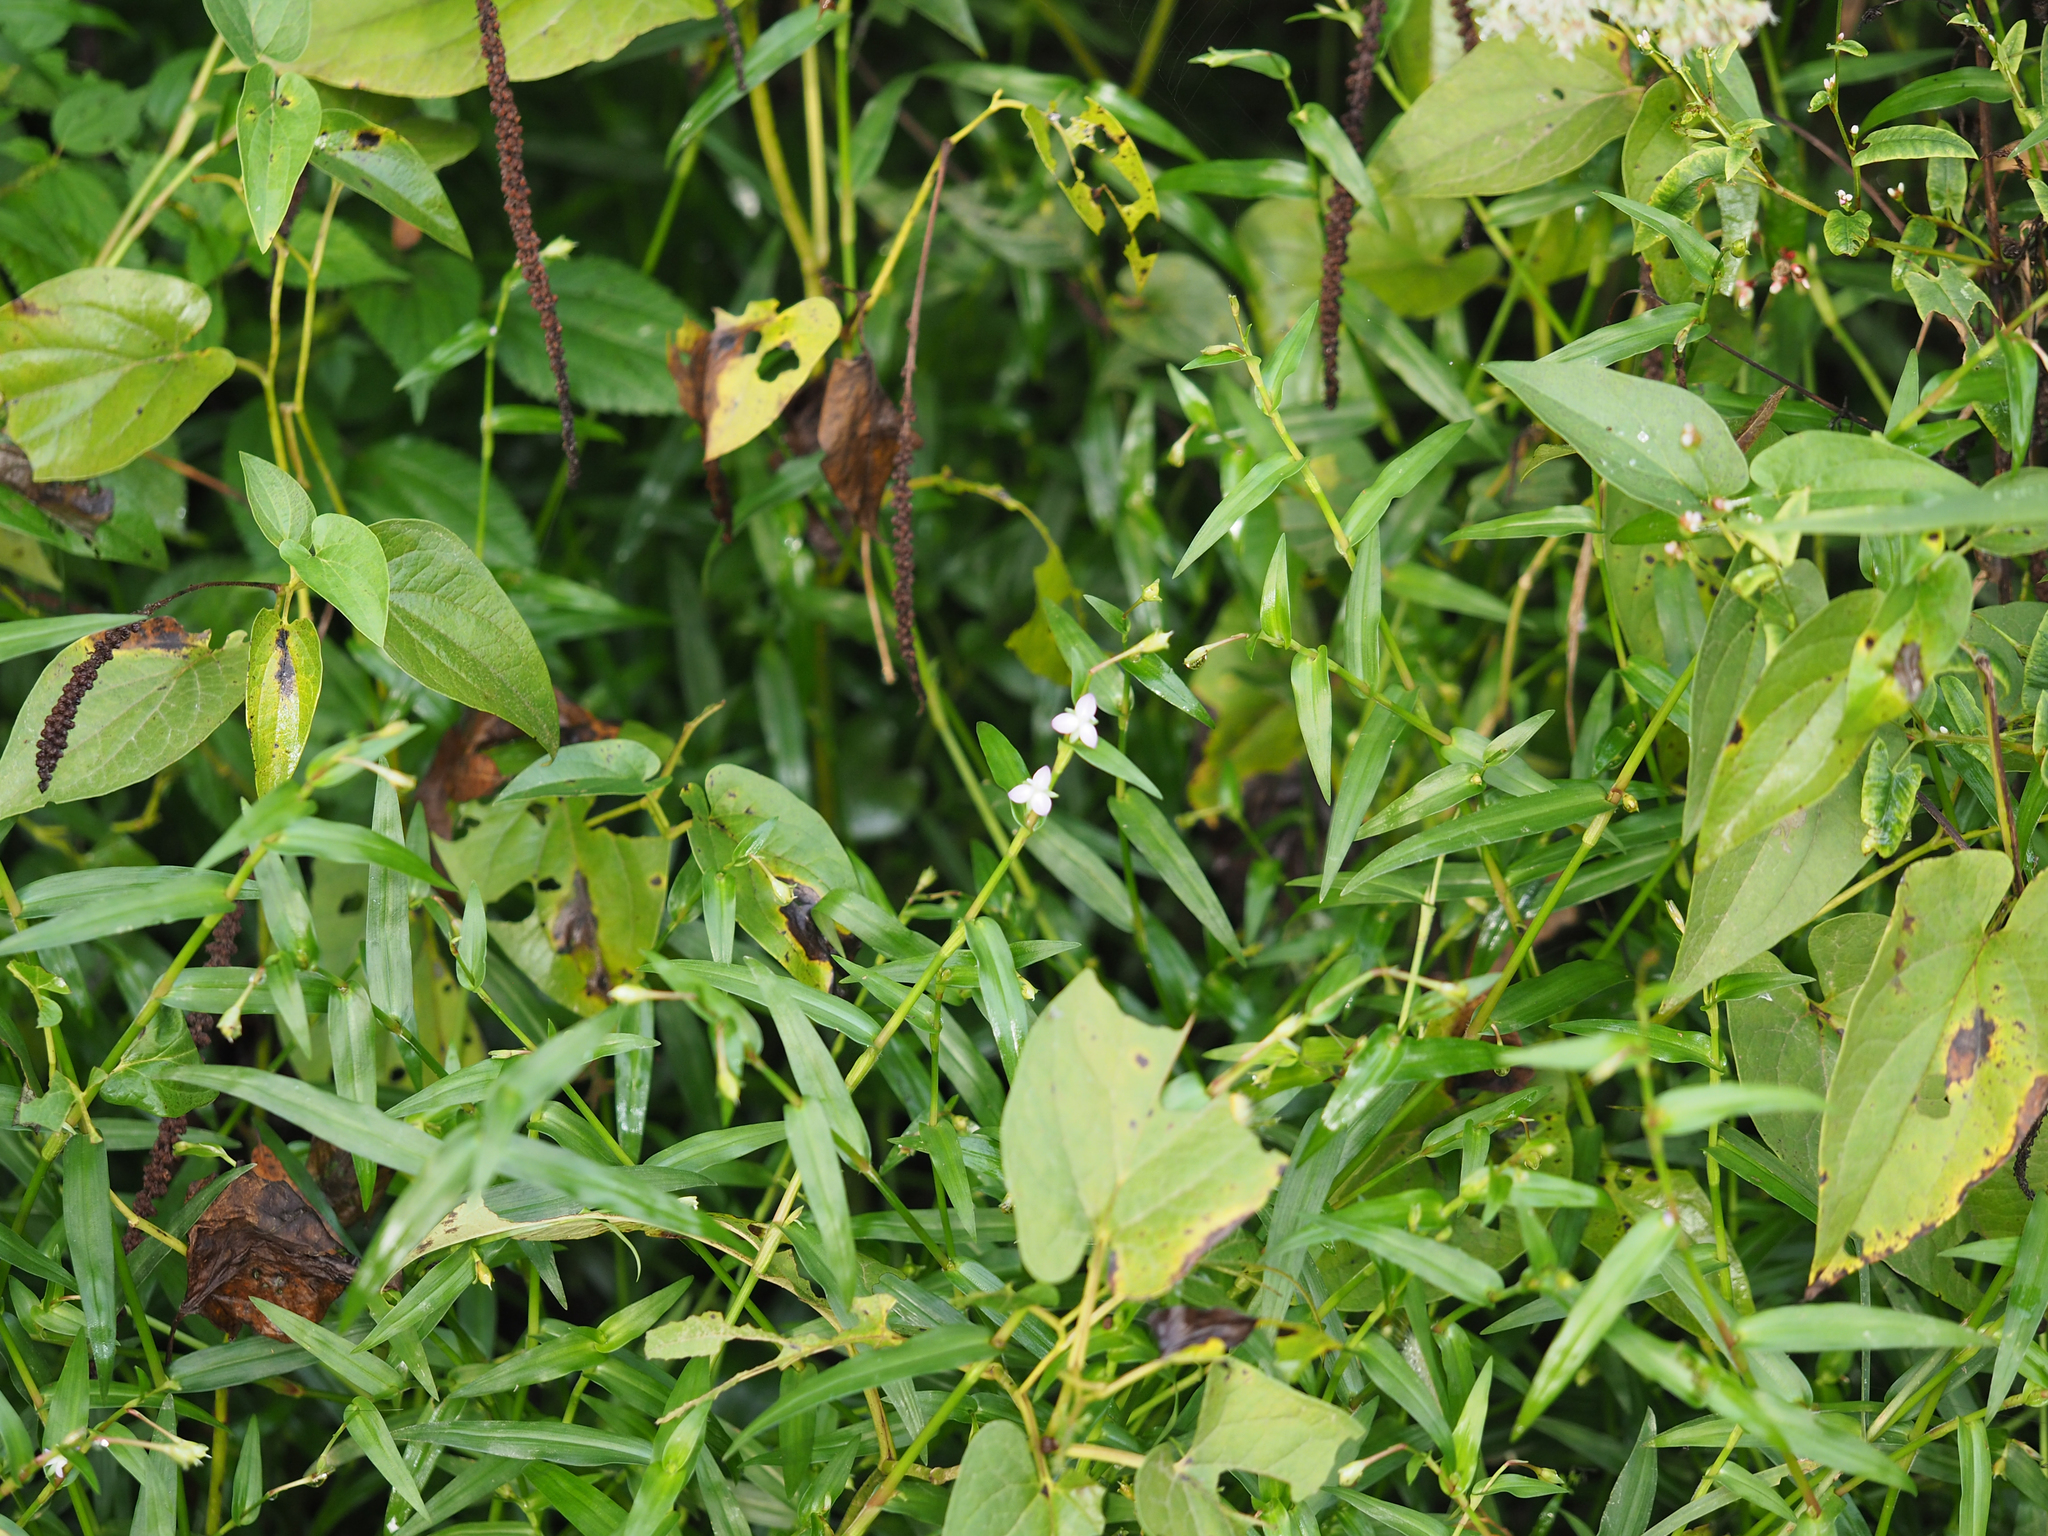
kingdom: Plantae
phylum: Tracheophyta
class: Liliopsida
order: Commelinales
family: Commelinaceae
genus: Murdannia
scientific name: Murdannia keisak
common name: Wartremoving herb
